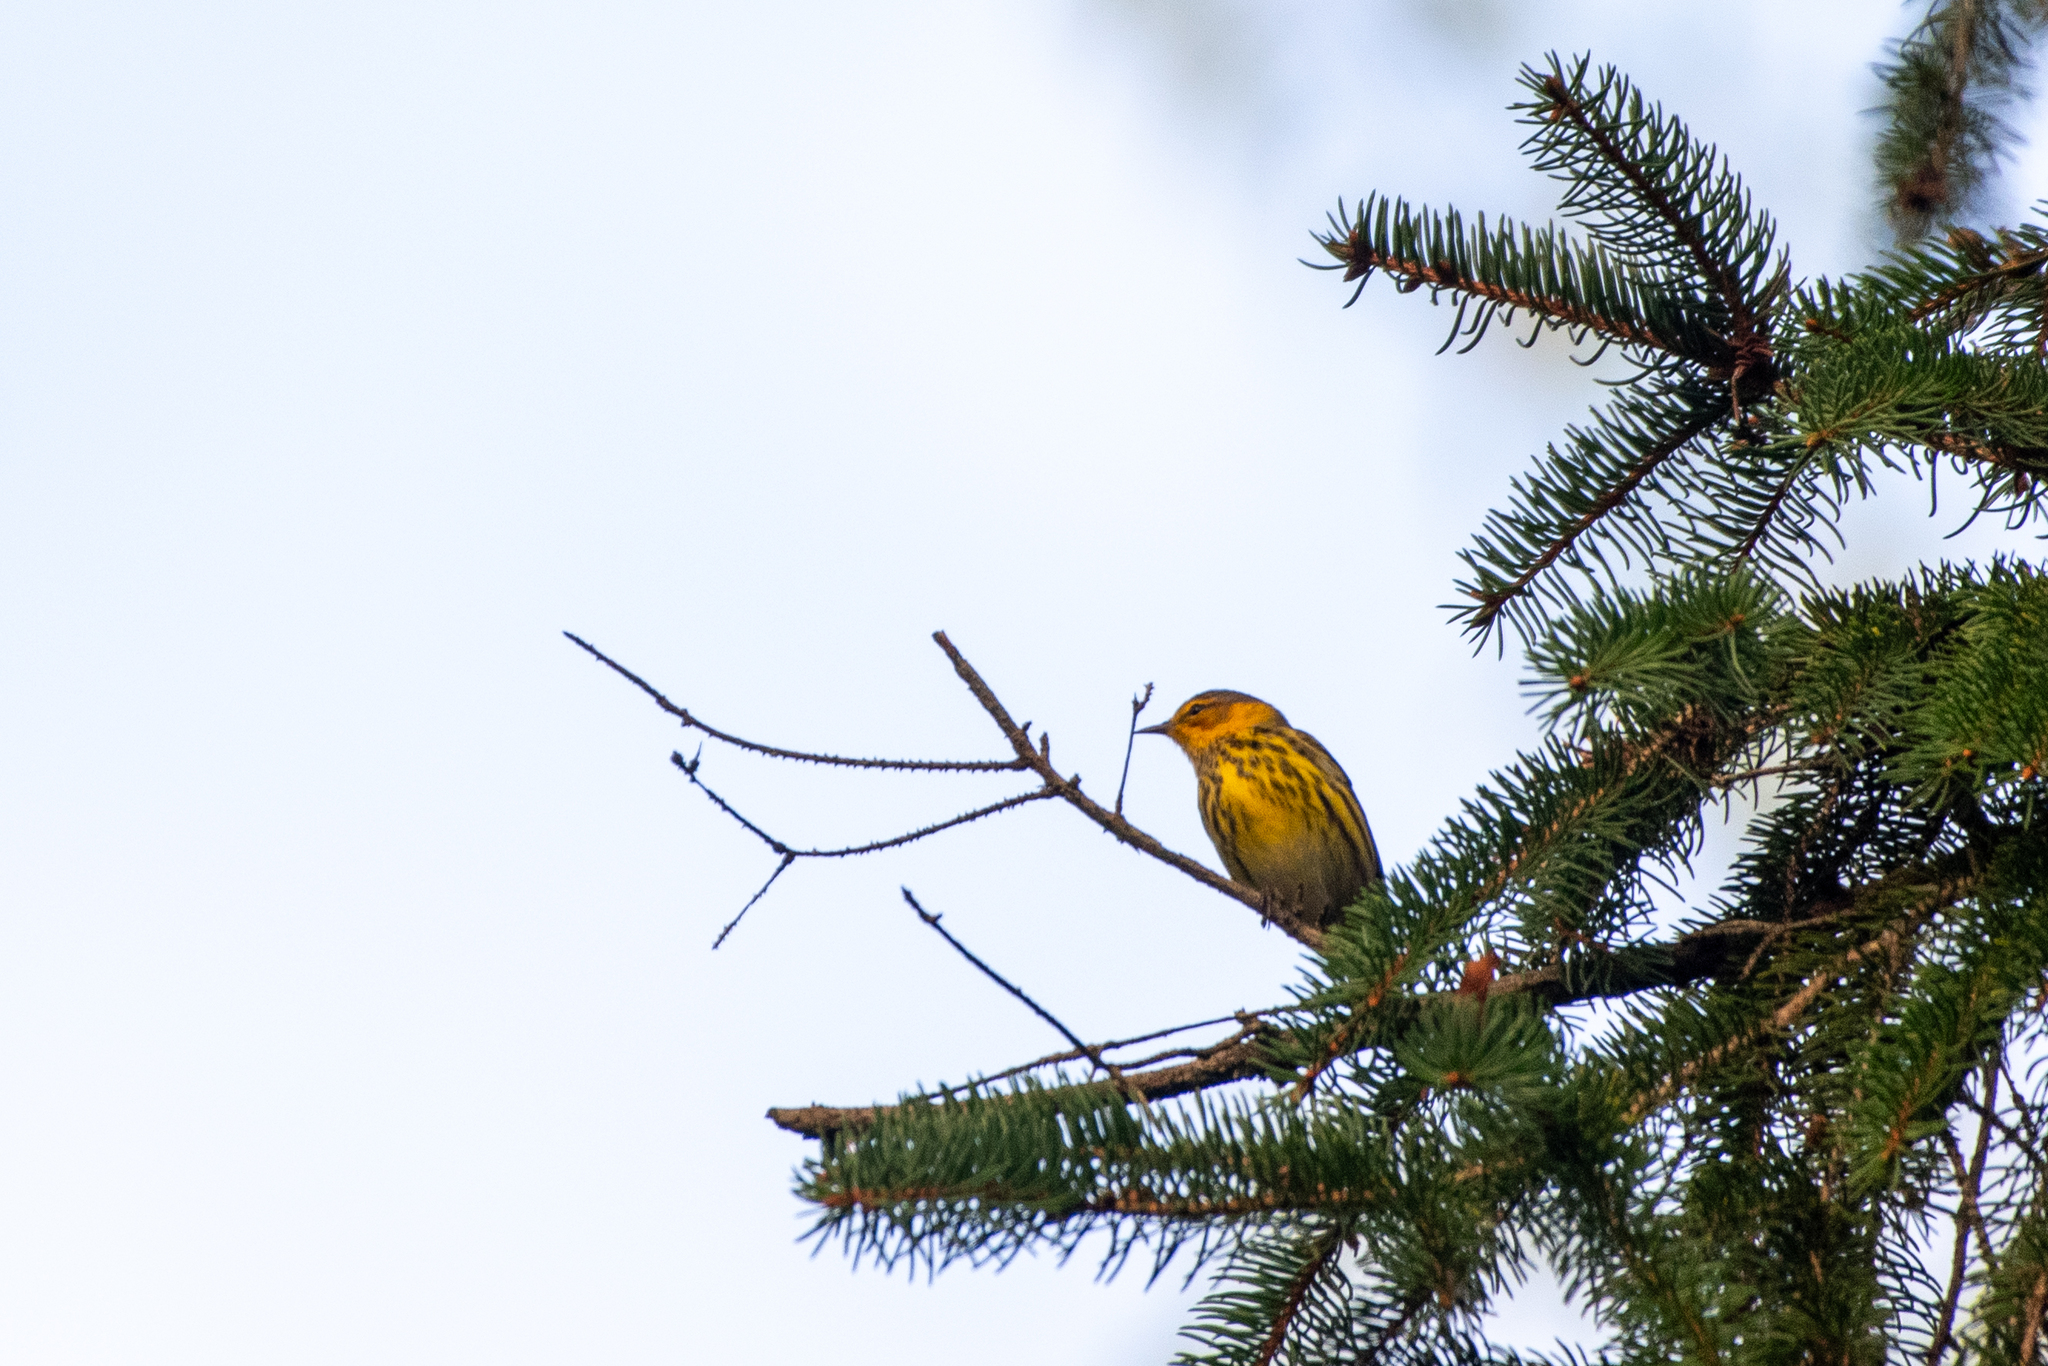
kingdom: Animalia
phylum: Chordata
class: Aves
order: Passeriformes
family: Parulidae
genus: Setophaga
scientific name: Setophaga tigrina
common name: Cape may warbler
